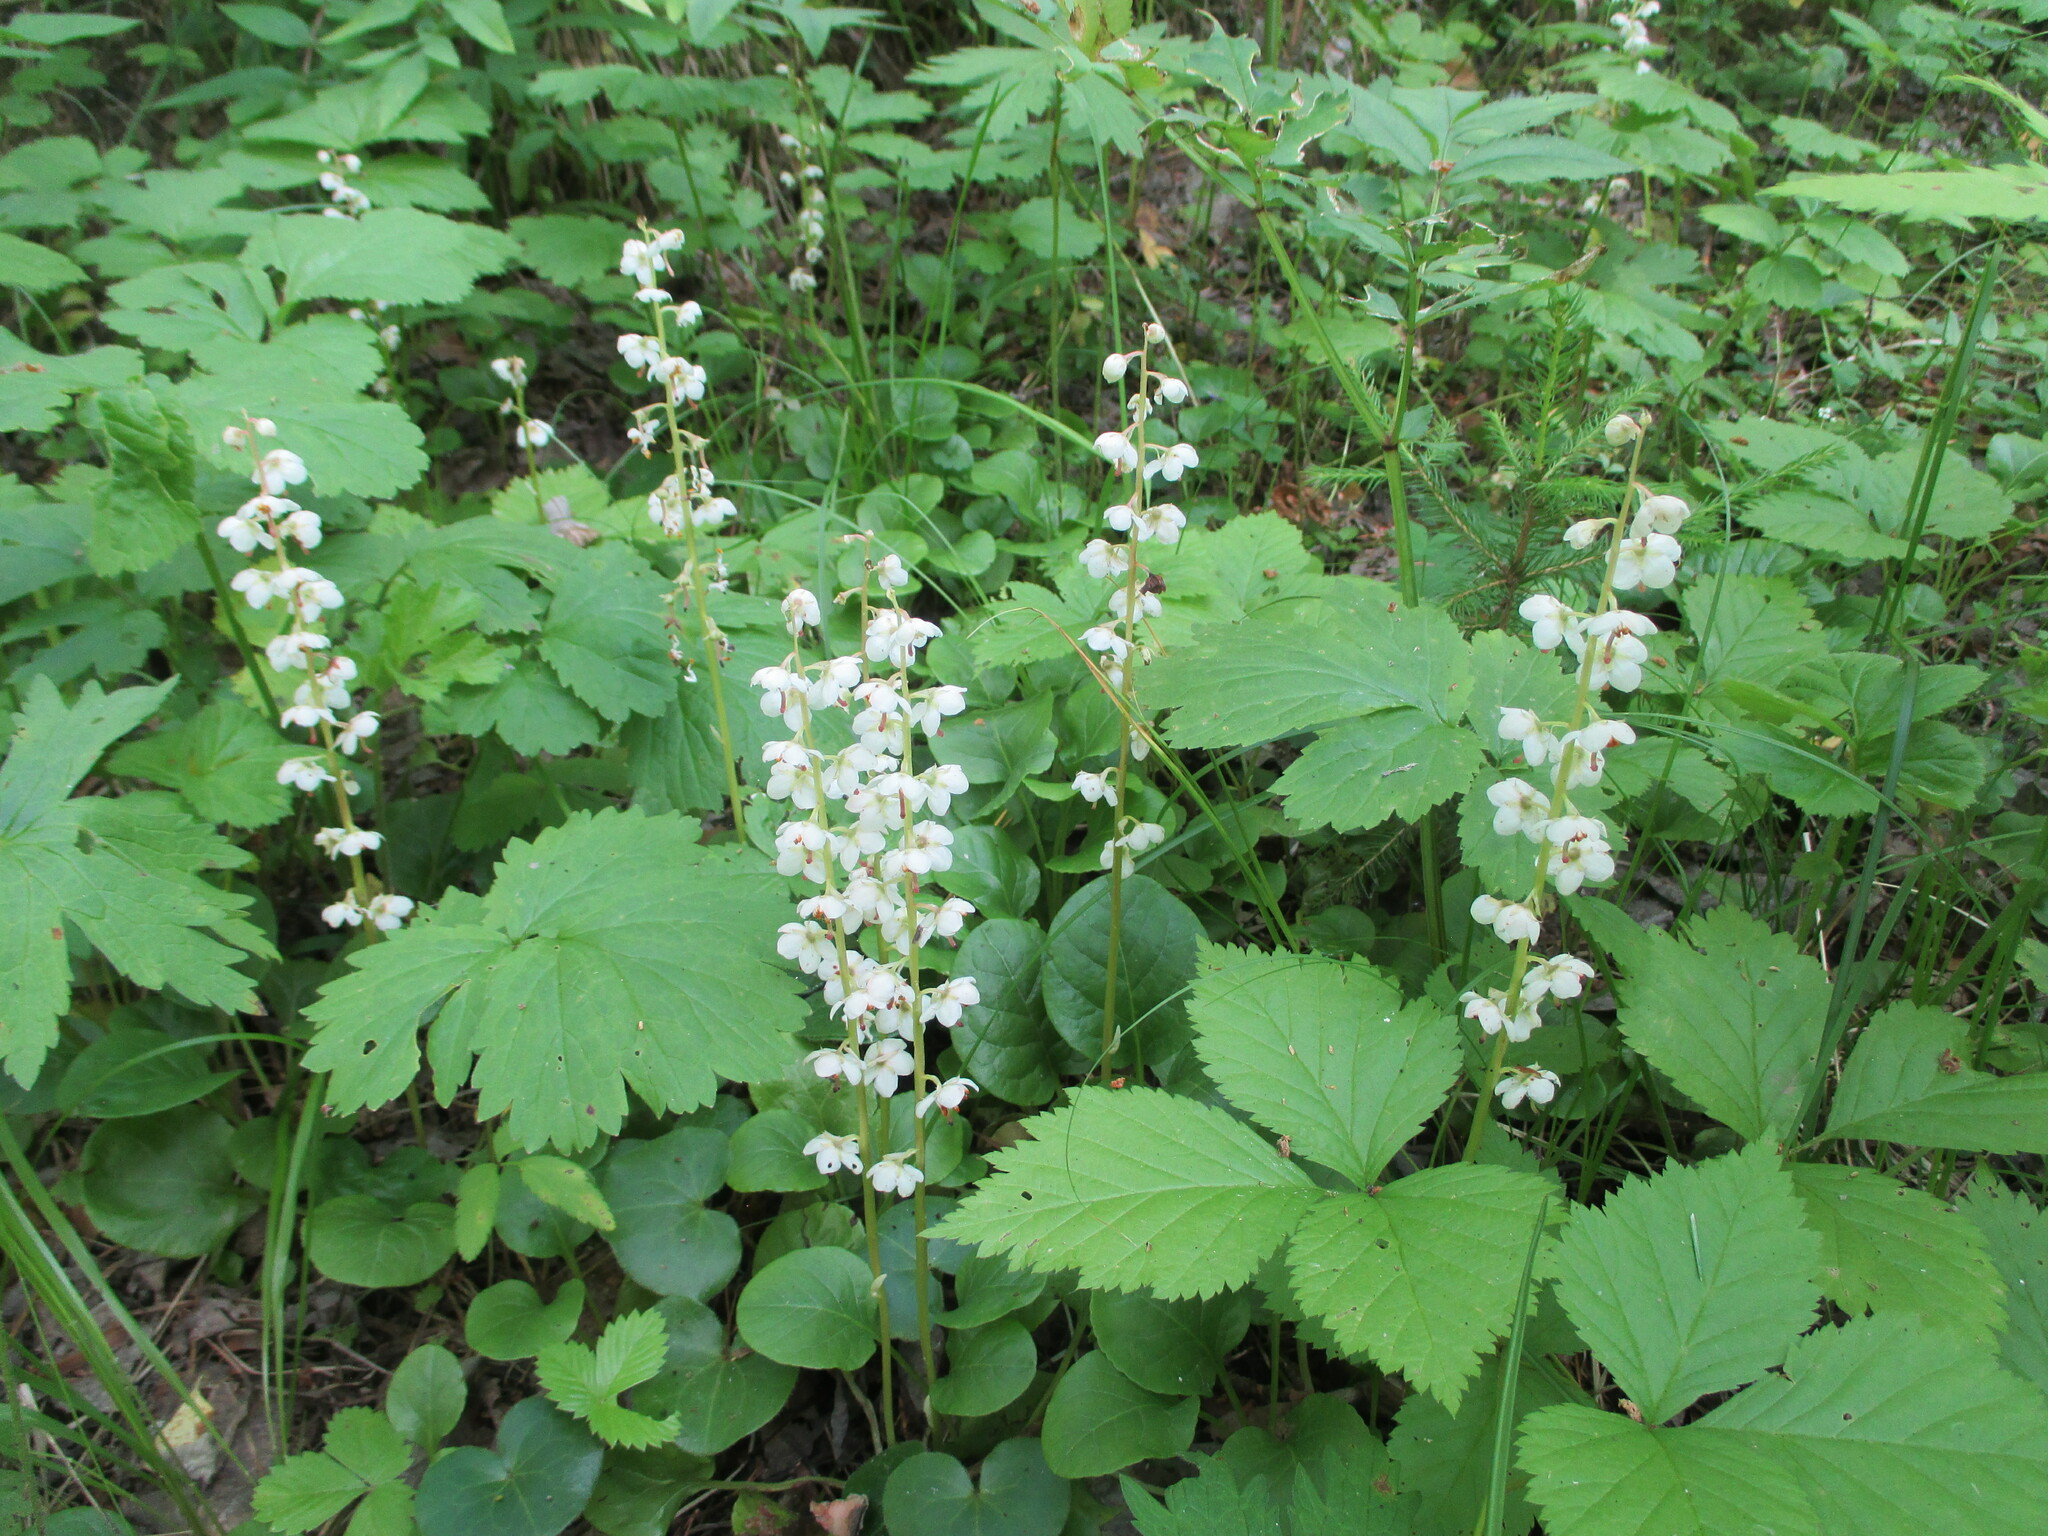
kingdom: Plantae
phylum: Tracheophyta
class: Magnoliopsida
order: Ericales
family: Ericaceae
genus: Pyrola
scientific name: Pyrola rotundifolia
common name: Round-leaved wintergreen
